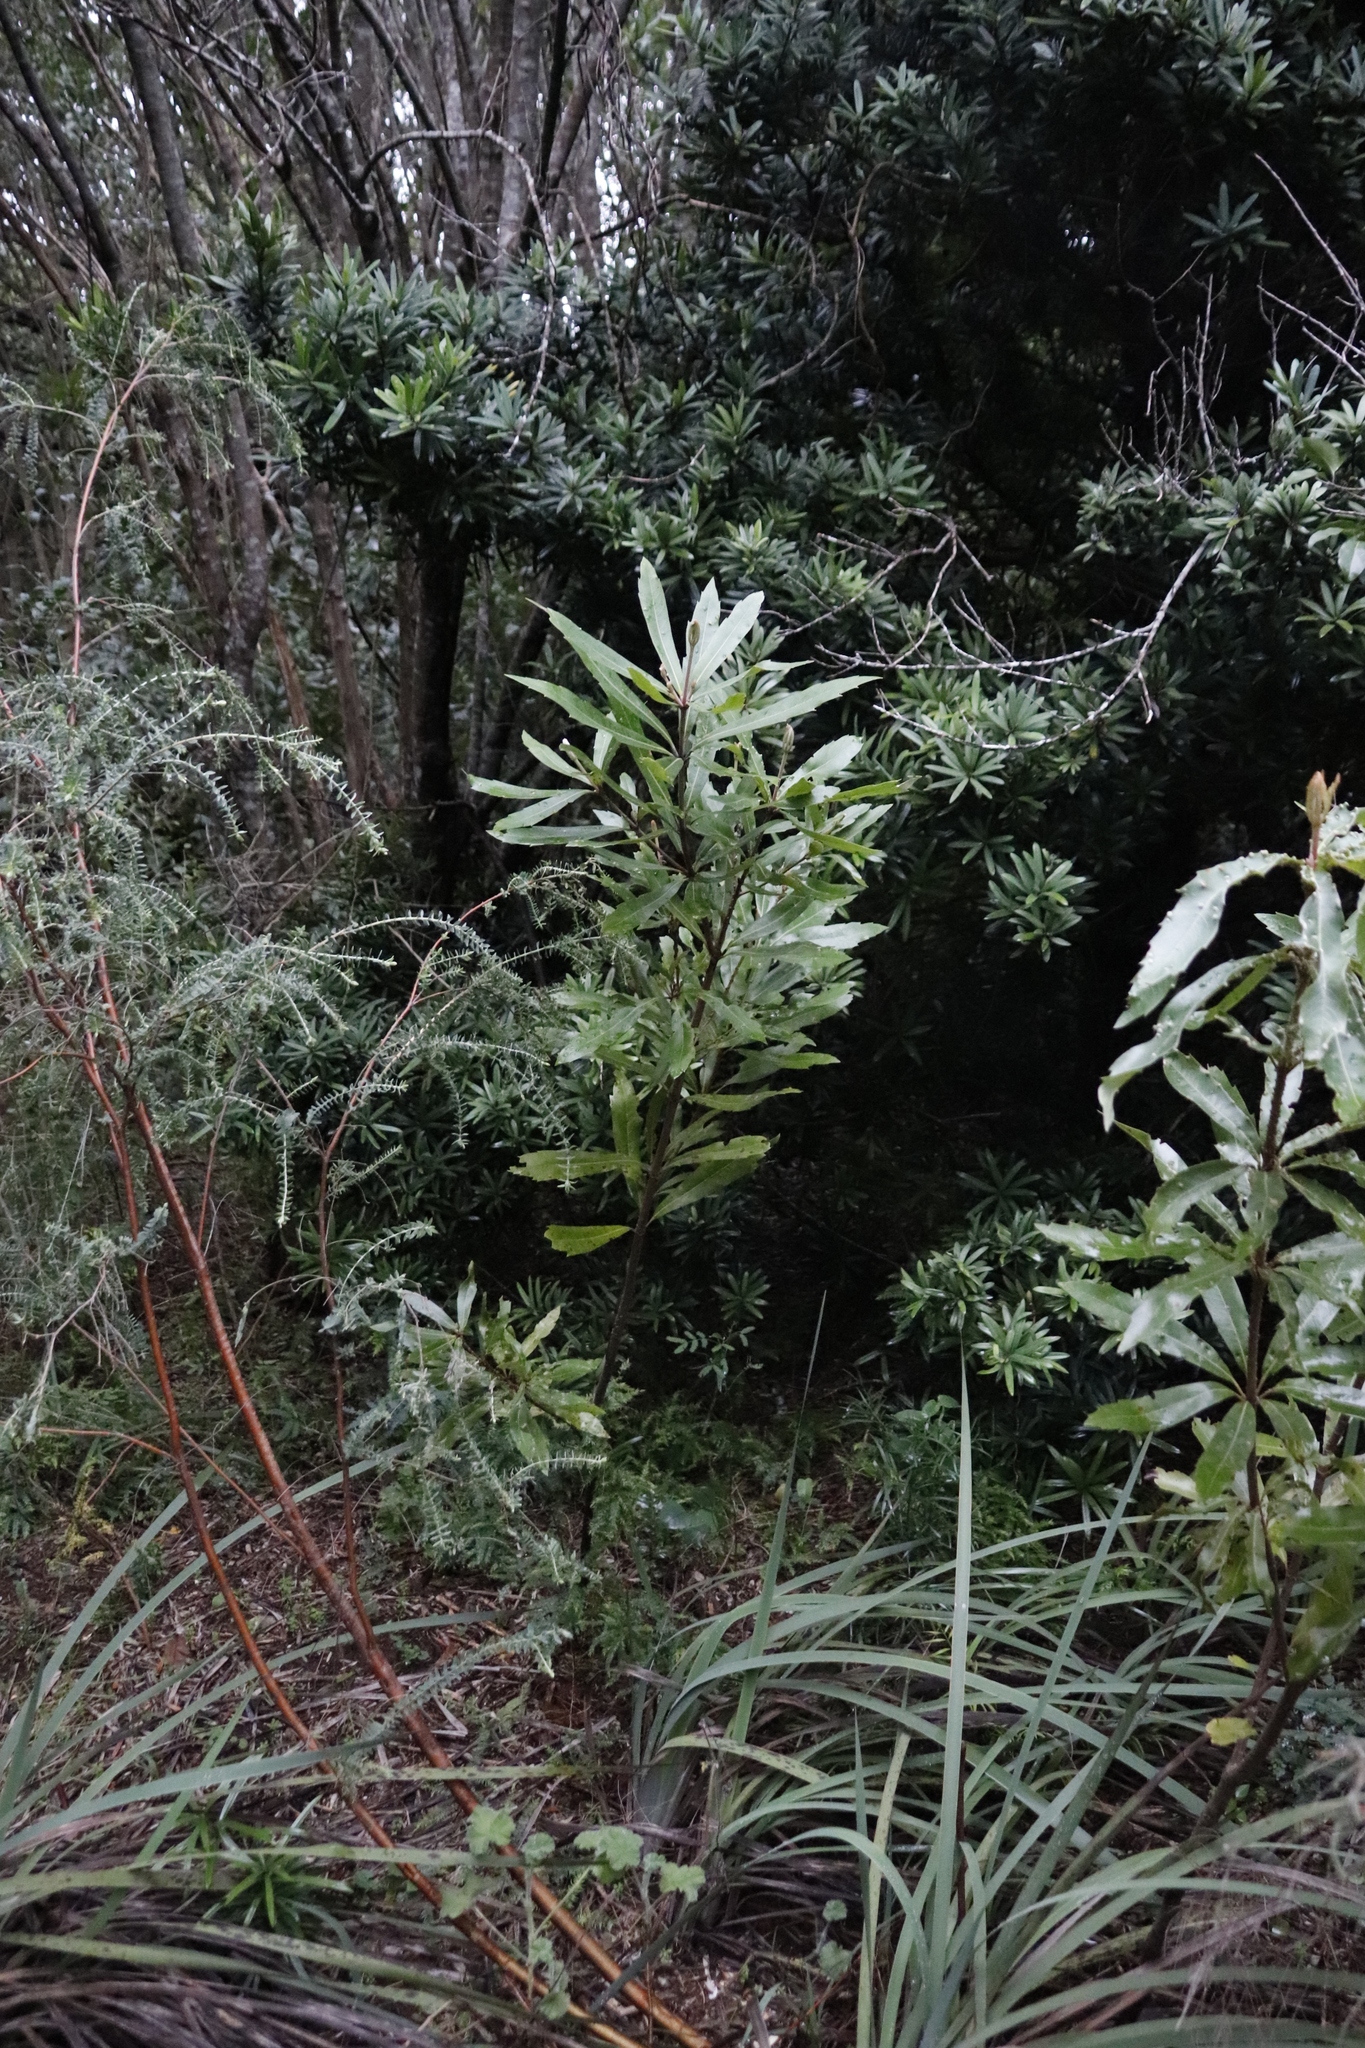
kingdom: Plantae
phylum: Tracheophyta
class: Magnoliopsida
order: Proteales
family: Proteaceae
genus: Brabejum
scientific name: Brabejum stellatifolium
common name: Wild almond
